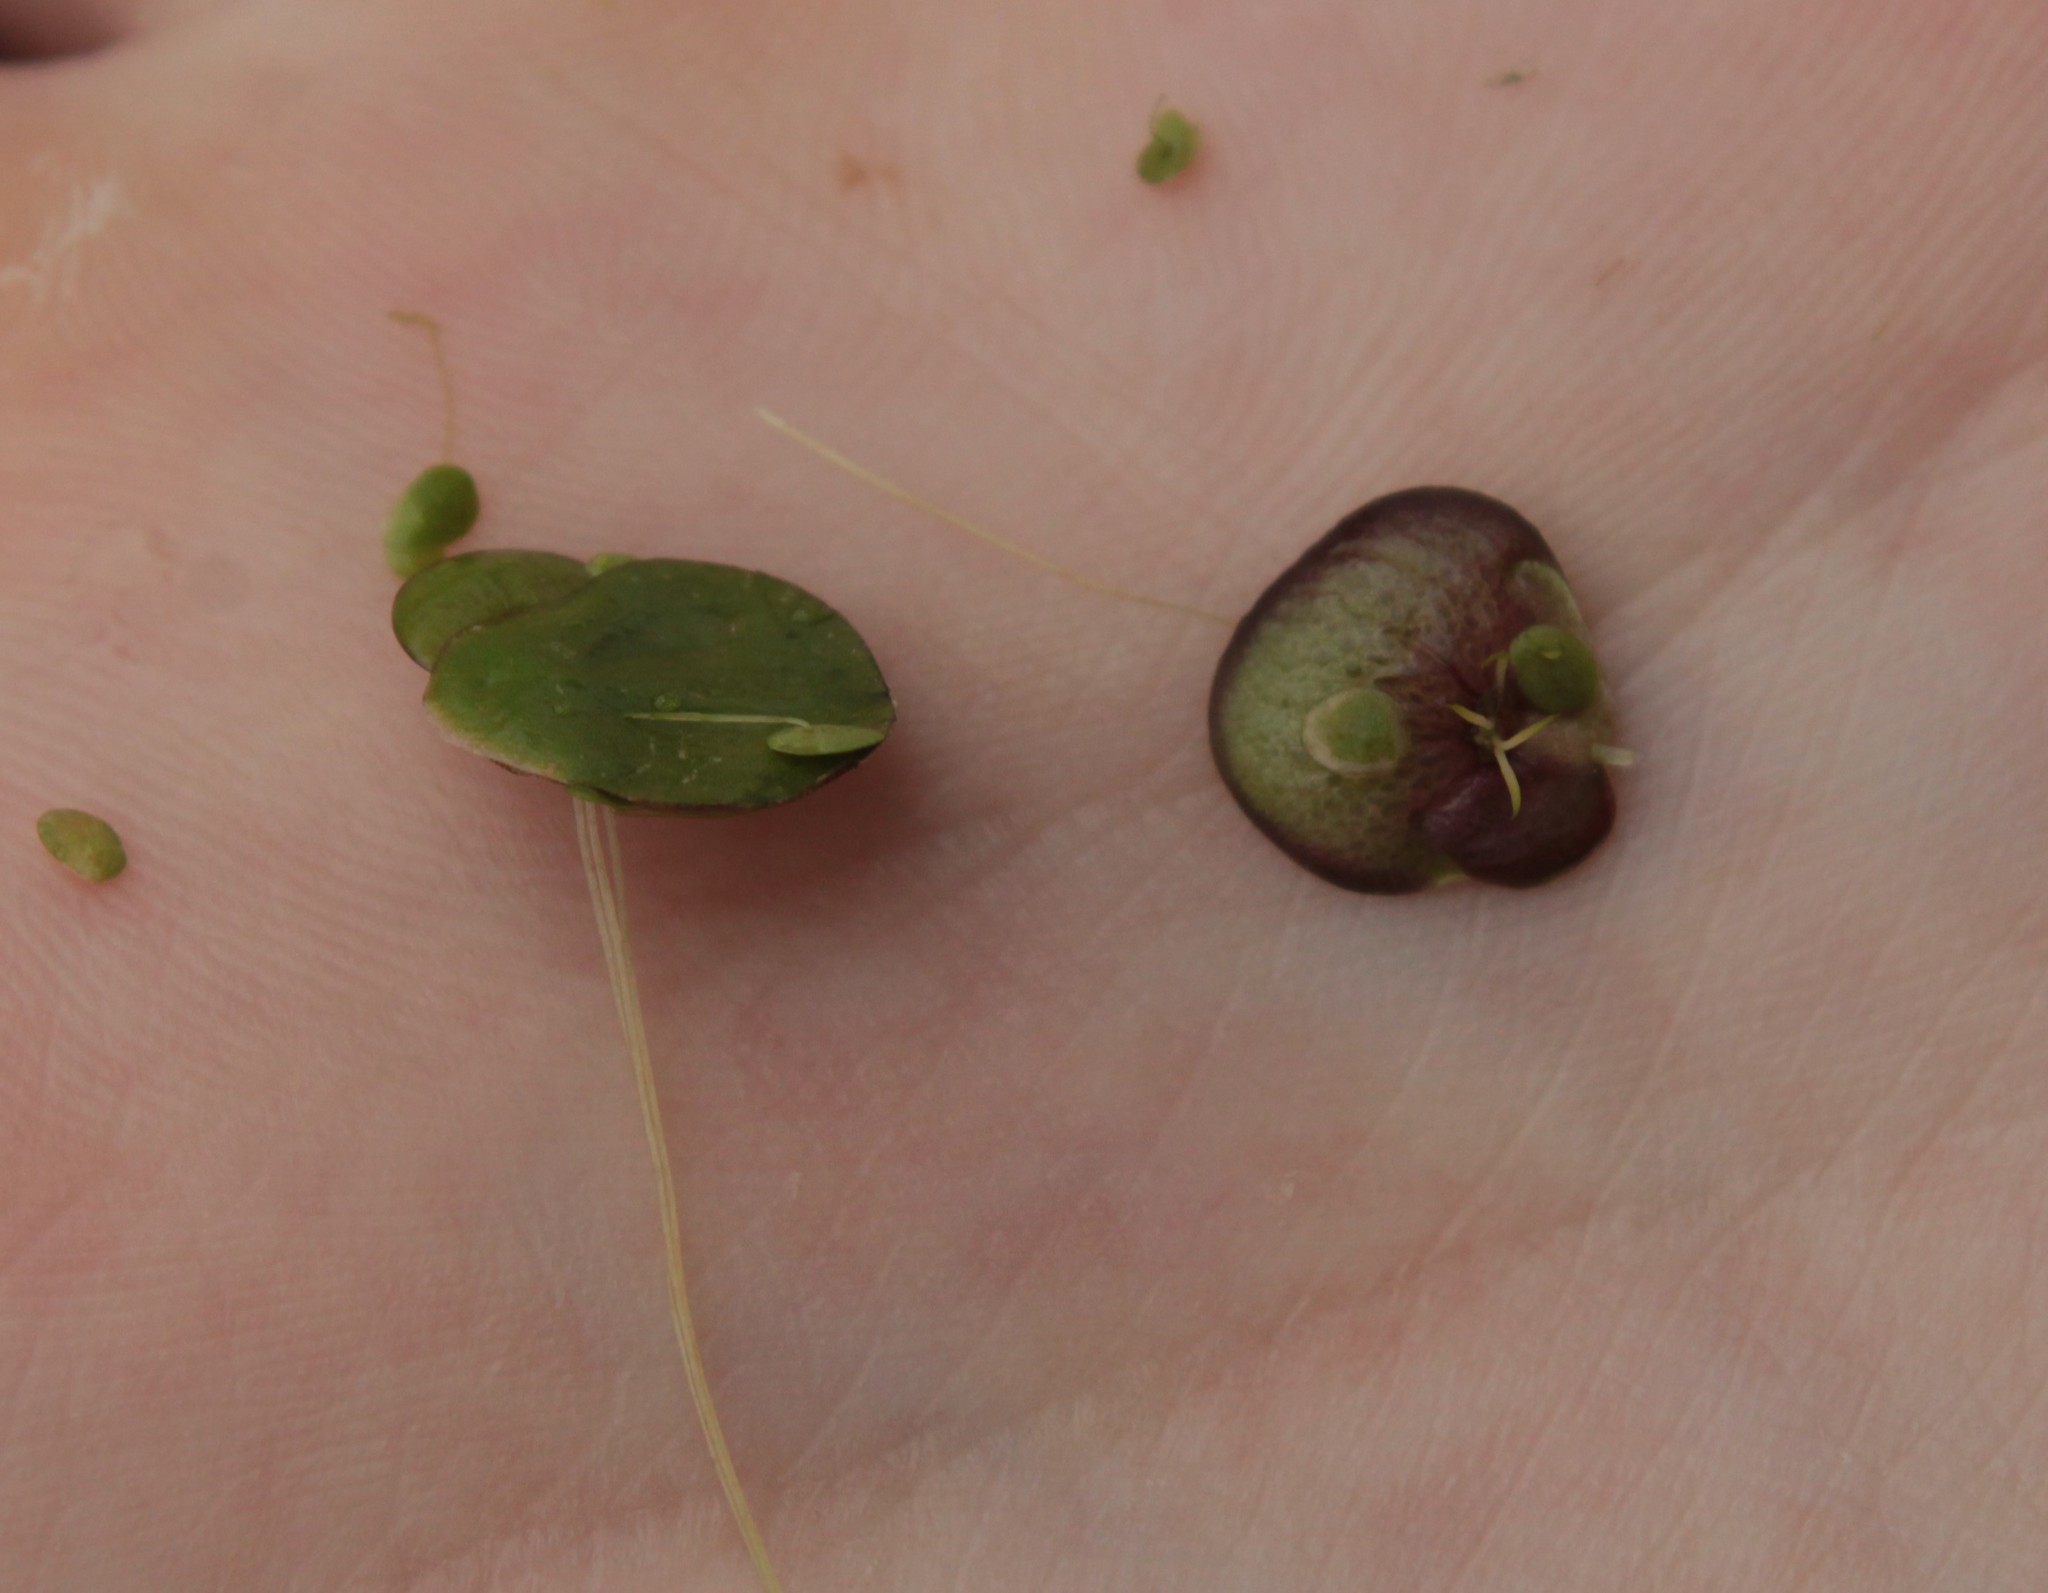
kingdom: Plantae
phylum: Tracheophyta
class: Liliopsida
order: Alismatales
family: Araceae
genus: Spirodela
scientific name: Spirodela polyrhiza
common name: Great duckweed
